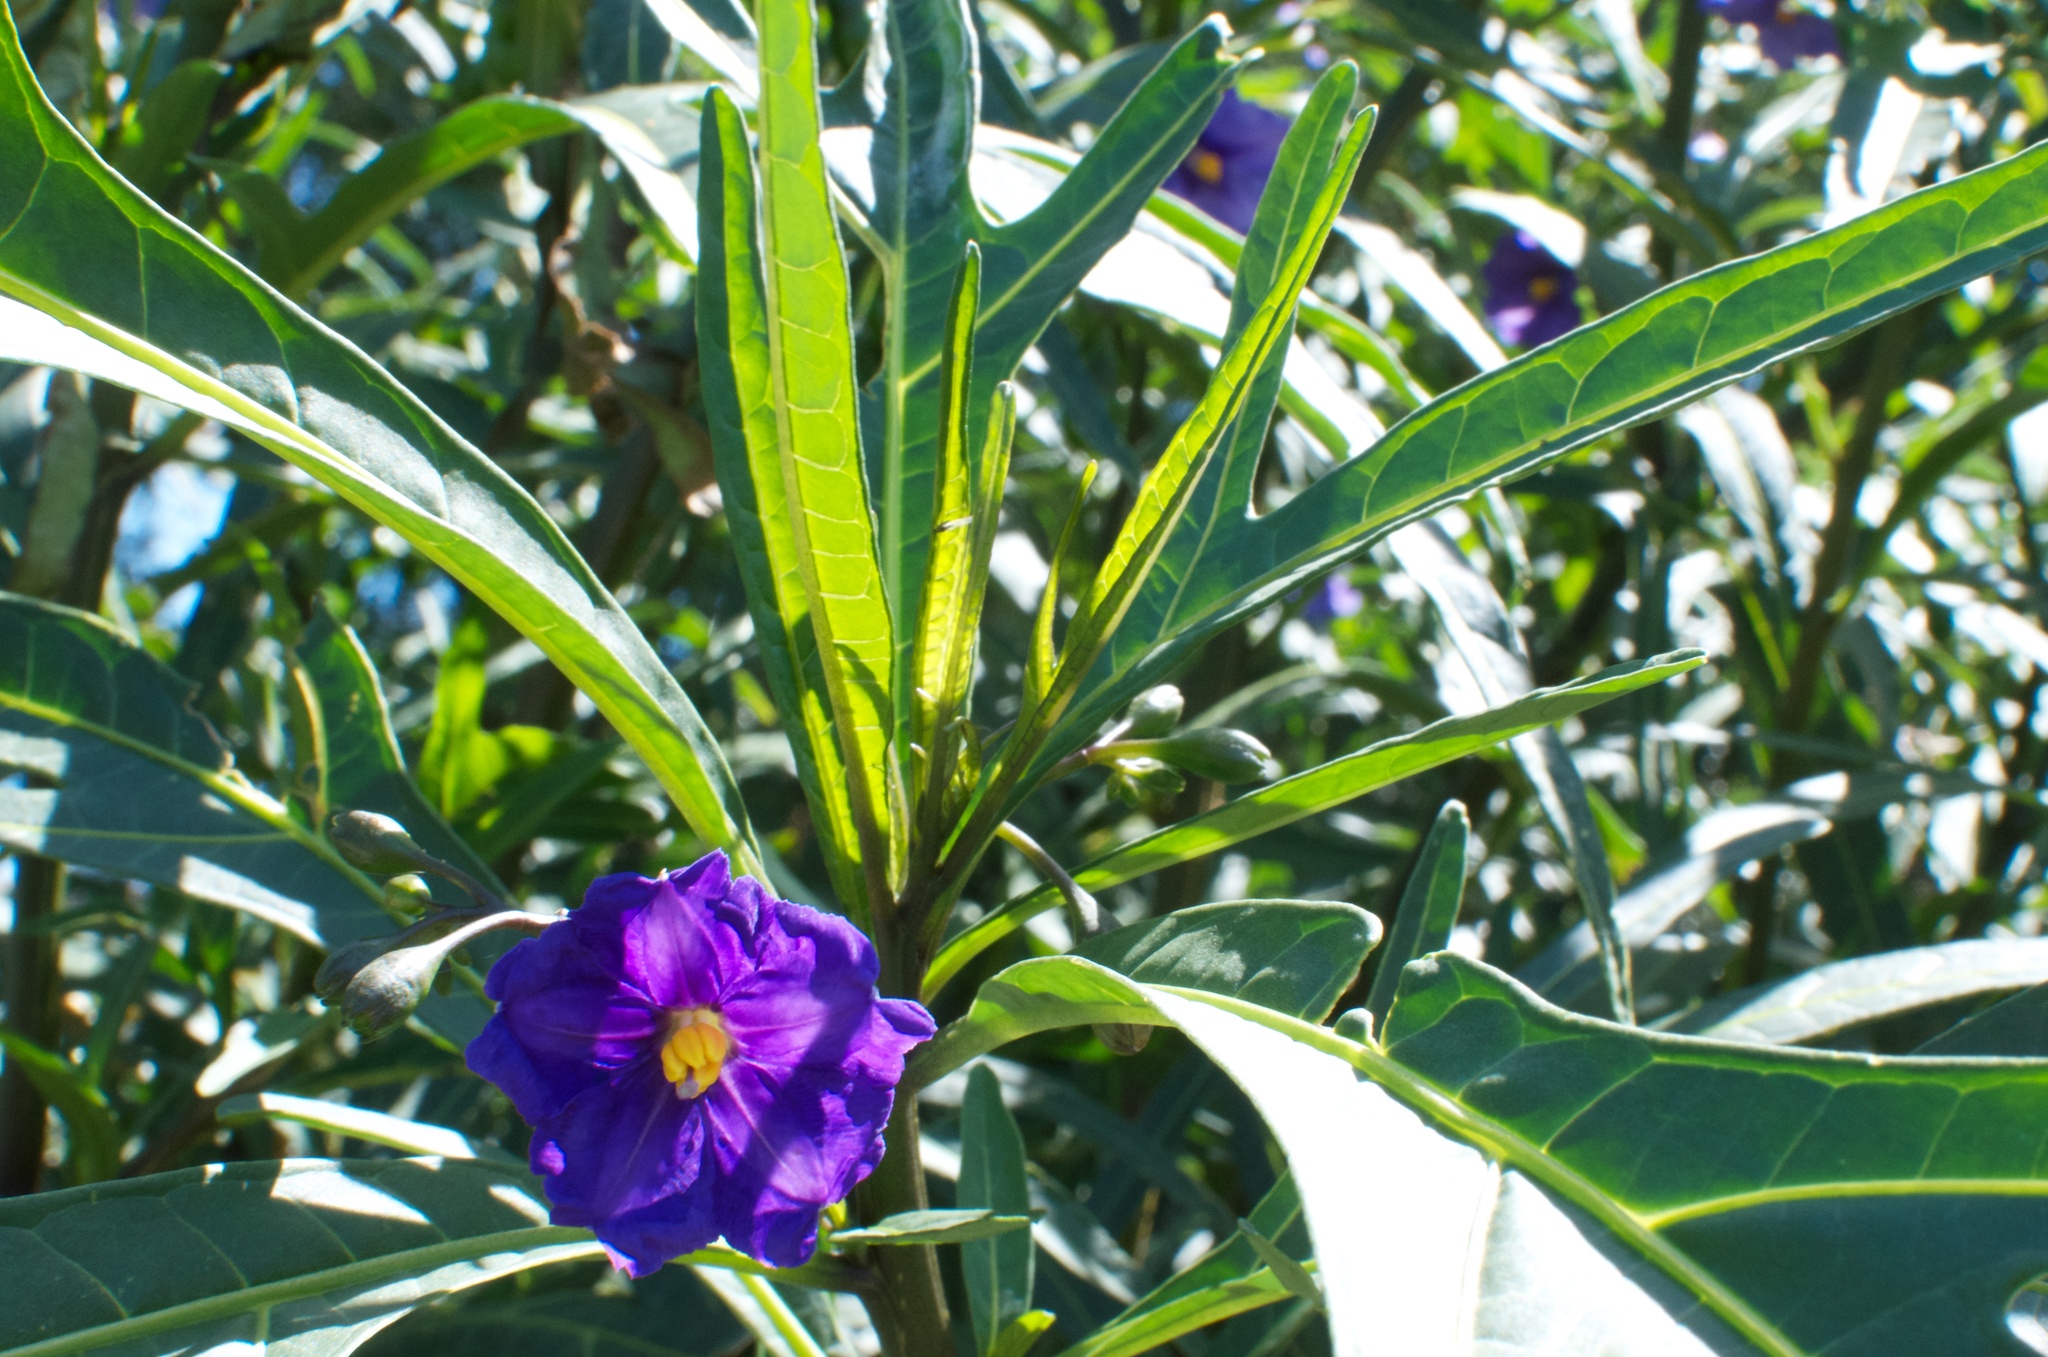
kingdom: Plantae
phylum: Tracheophyta
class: Magnoliopsida
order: Solanales
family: Solanaceae
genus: Solanum
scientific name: Solanum laciniatum
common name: Kangaroo-apple
